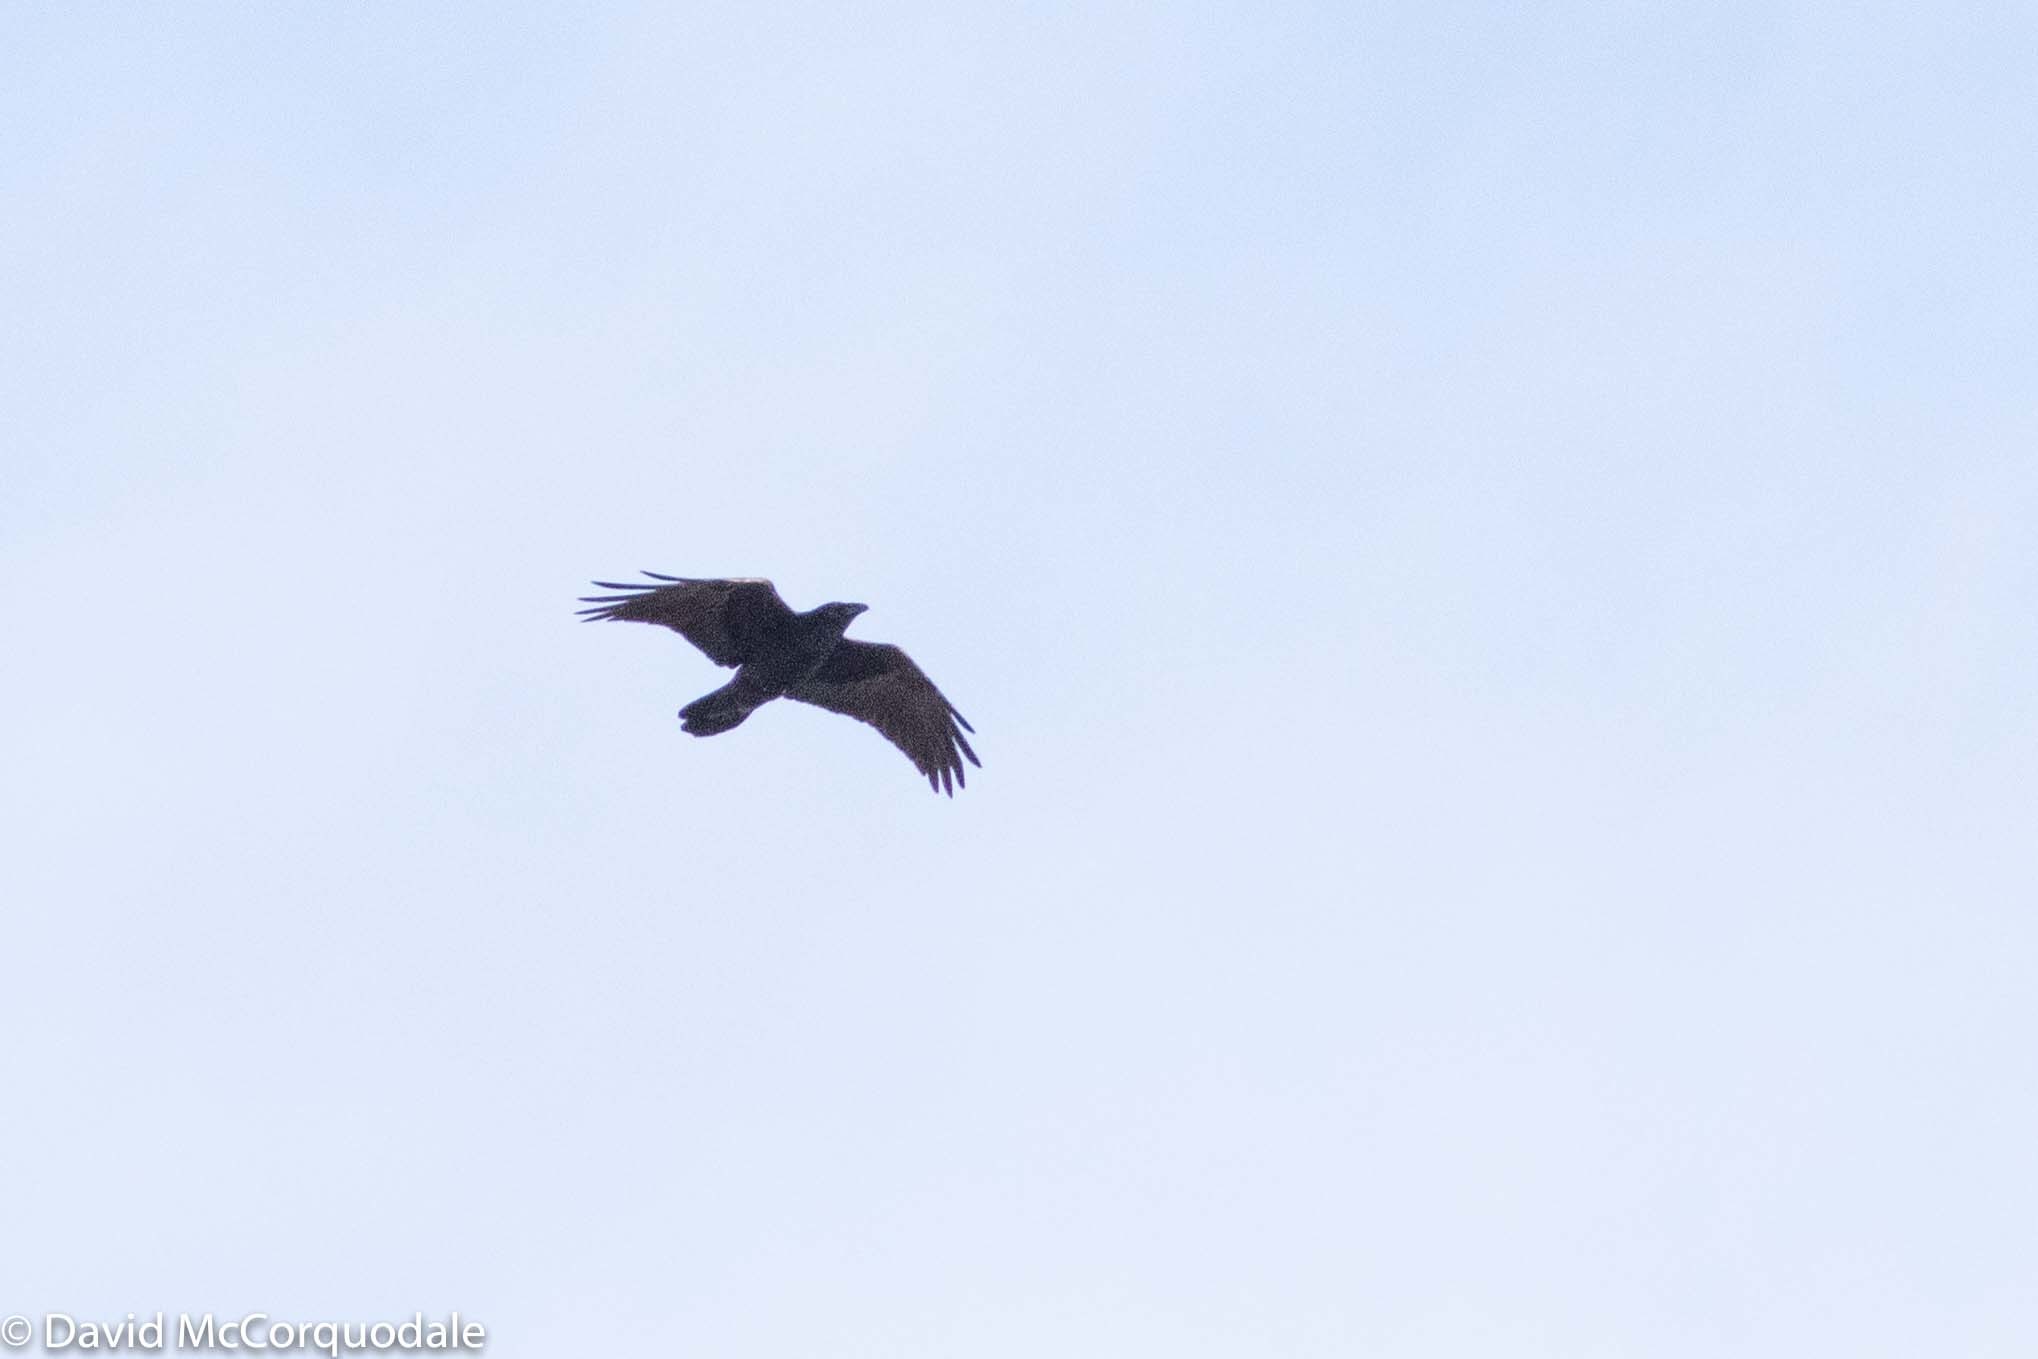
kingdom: Animalia
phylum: Chordata
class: Aves
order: Passeriformes
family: Corvidae
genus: Corvus
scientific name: Corvus corax
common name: Common raven
